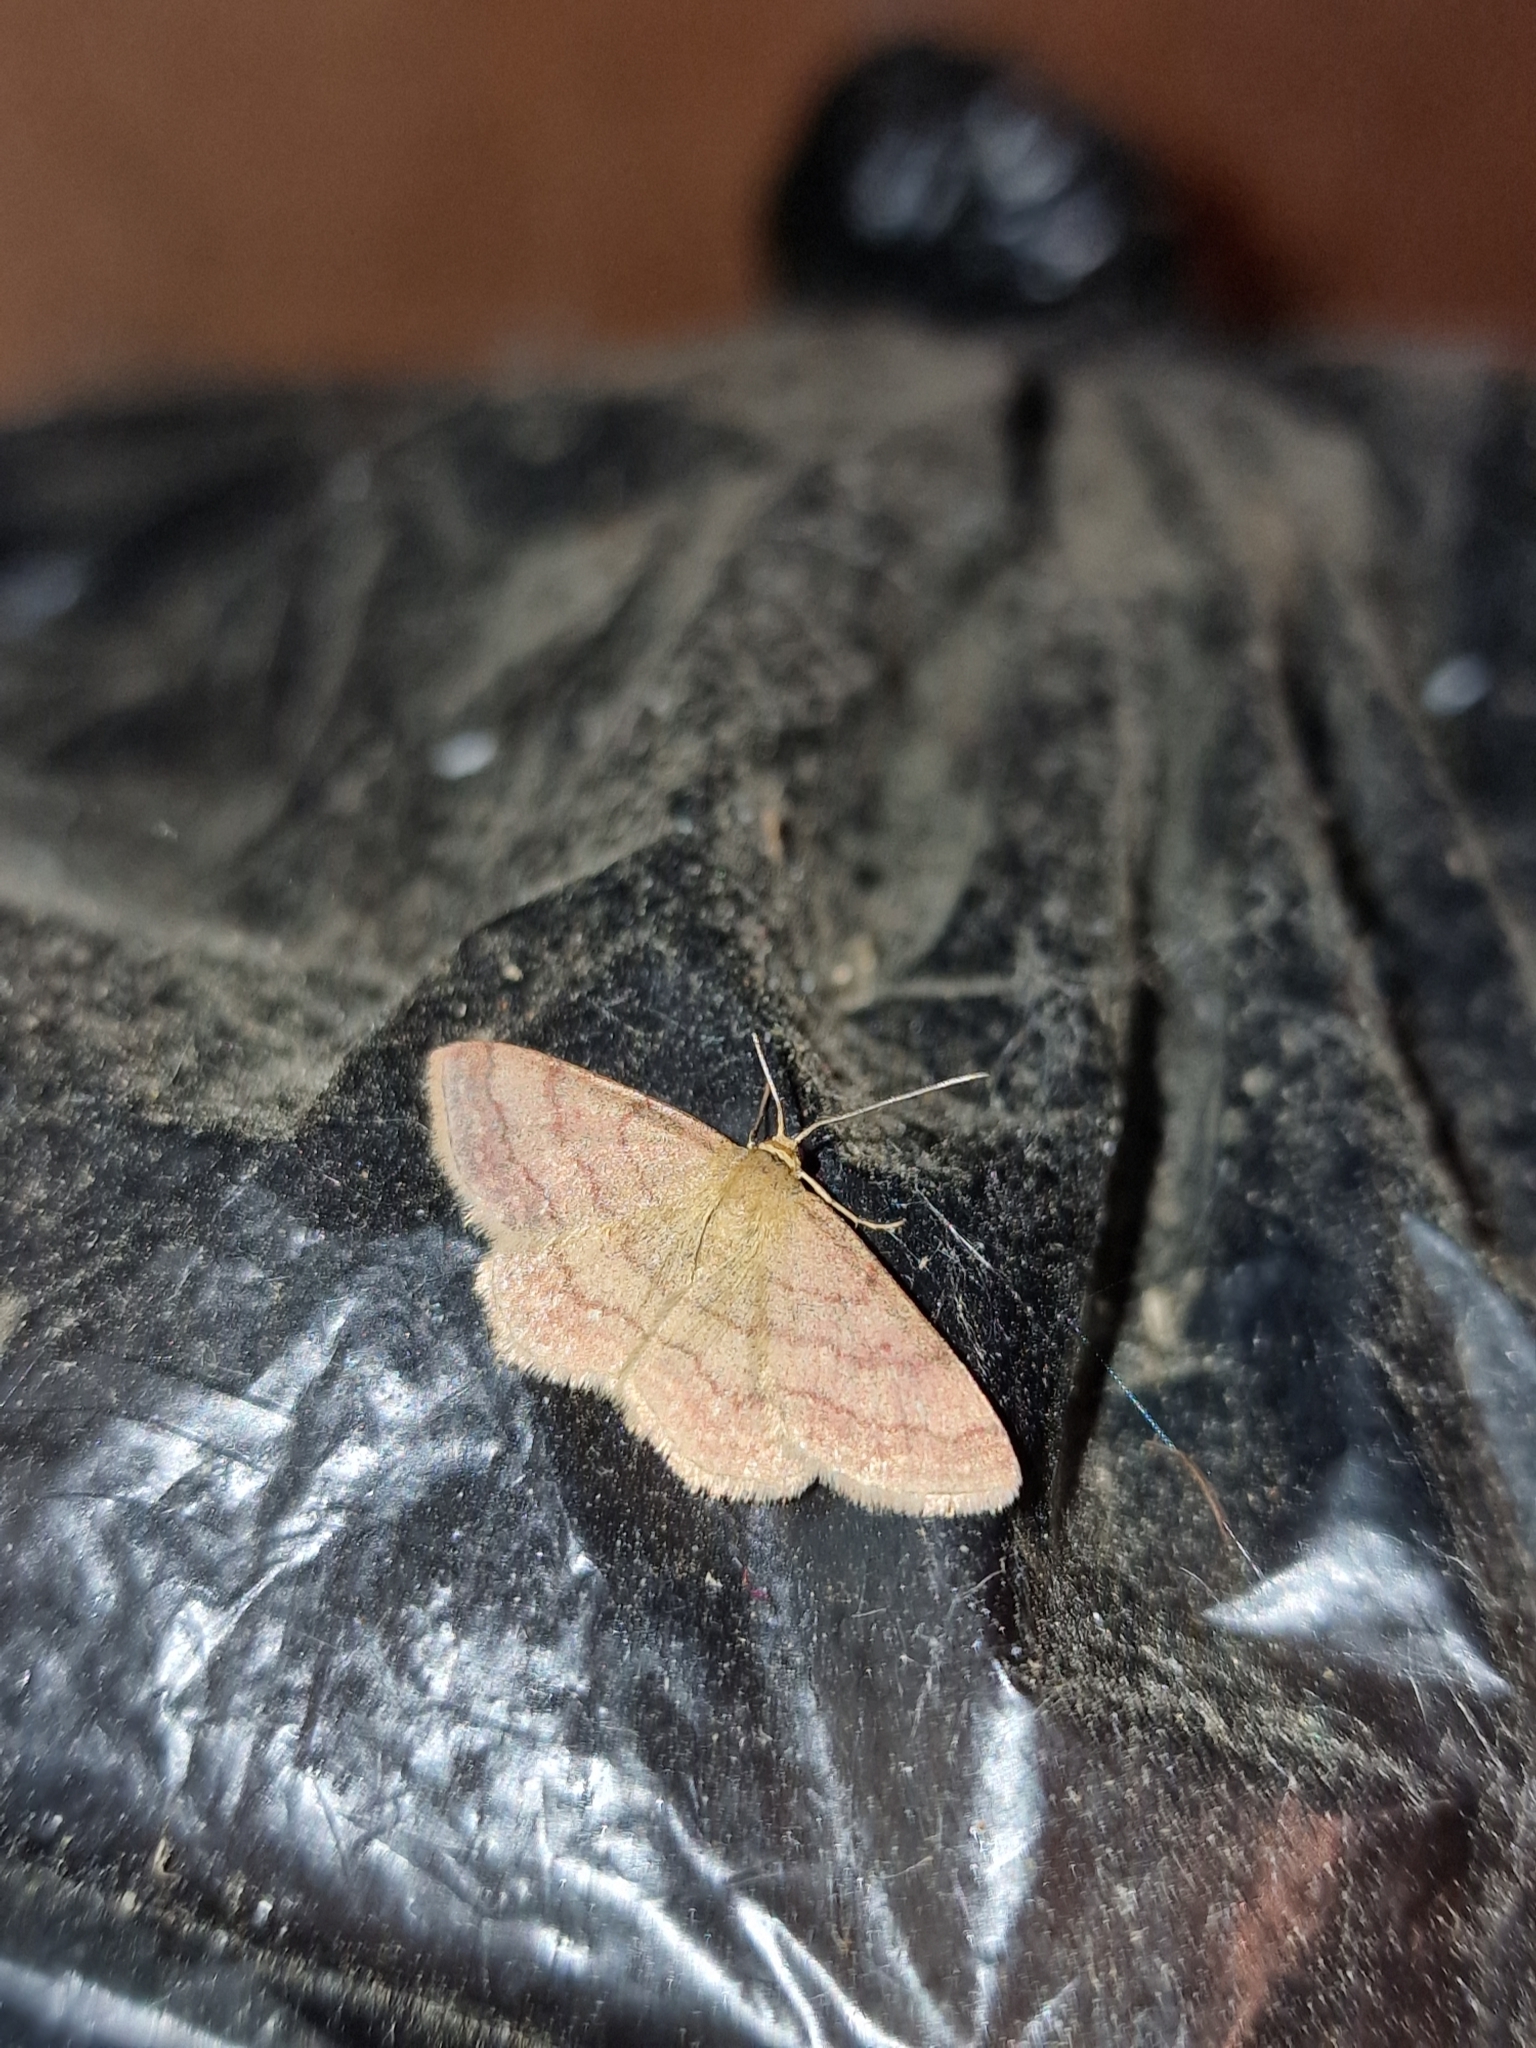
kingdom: Animalia
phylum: Arthropoda
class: Insecta
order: Lepidoptera
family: Geometridae
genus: Scopula
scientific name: Scopula rubiginata
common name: Tawny wave
